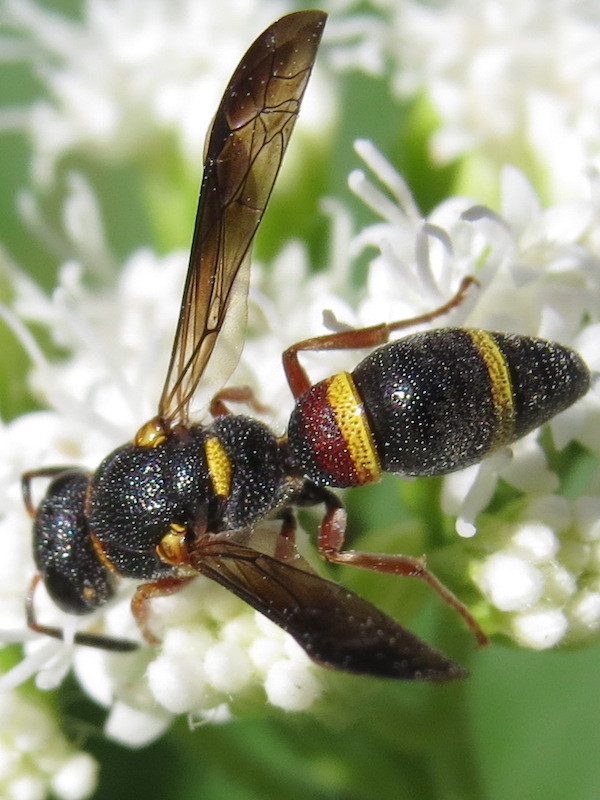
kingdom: Animalia
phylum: Arthropoda
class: Insecta
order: Hymenoptera
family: Eumenidae
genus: Parancistrocerus
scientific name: Parancistrocerus perennis
